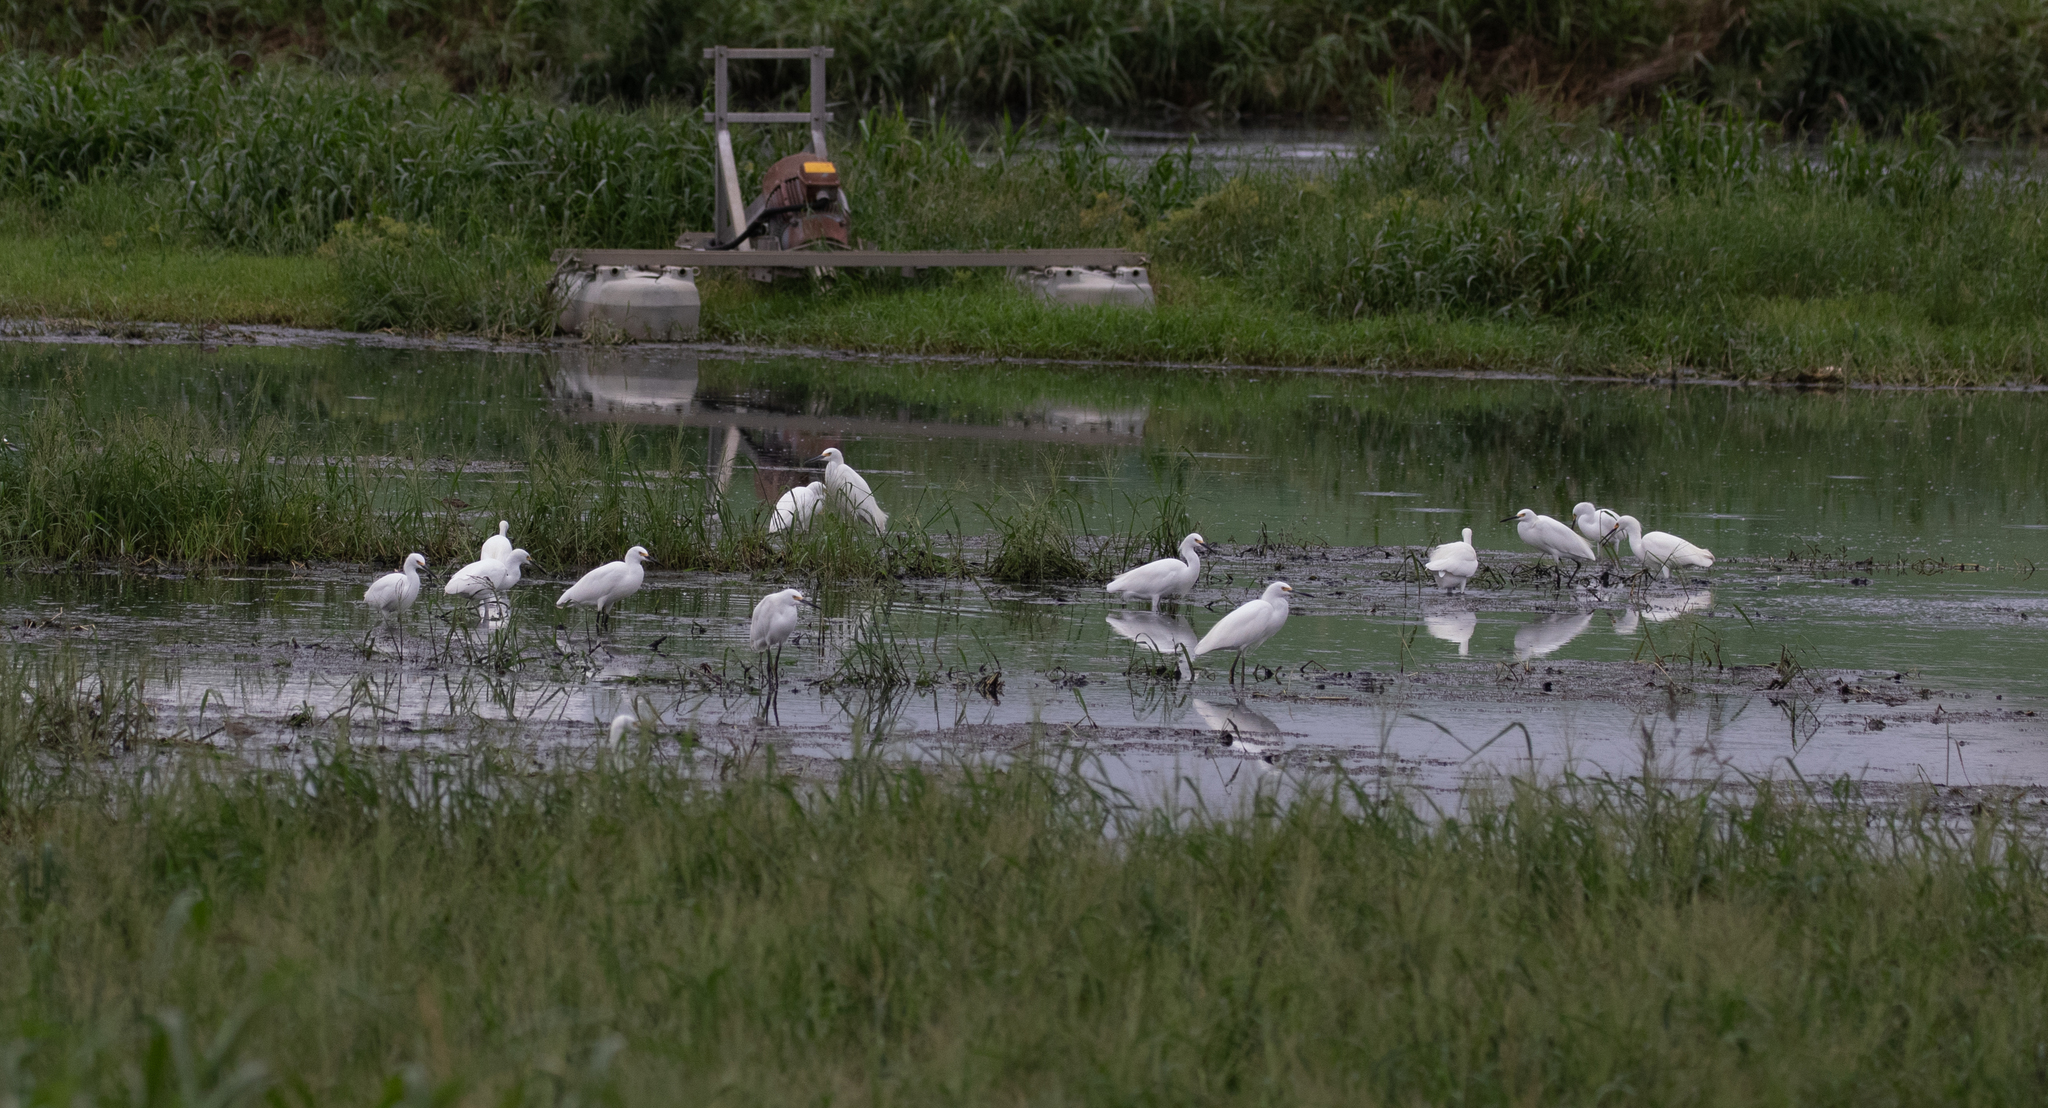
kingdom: Animalia
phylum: Chordata
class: Aves
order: Pelecaniformes
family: Ardeidae
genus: Egretta
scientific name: Egretta thula
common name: Snowy egret
